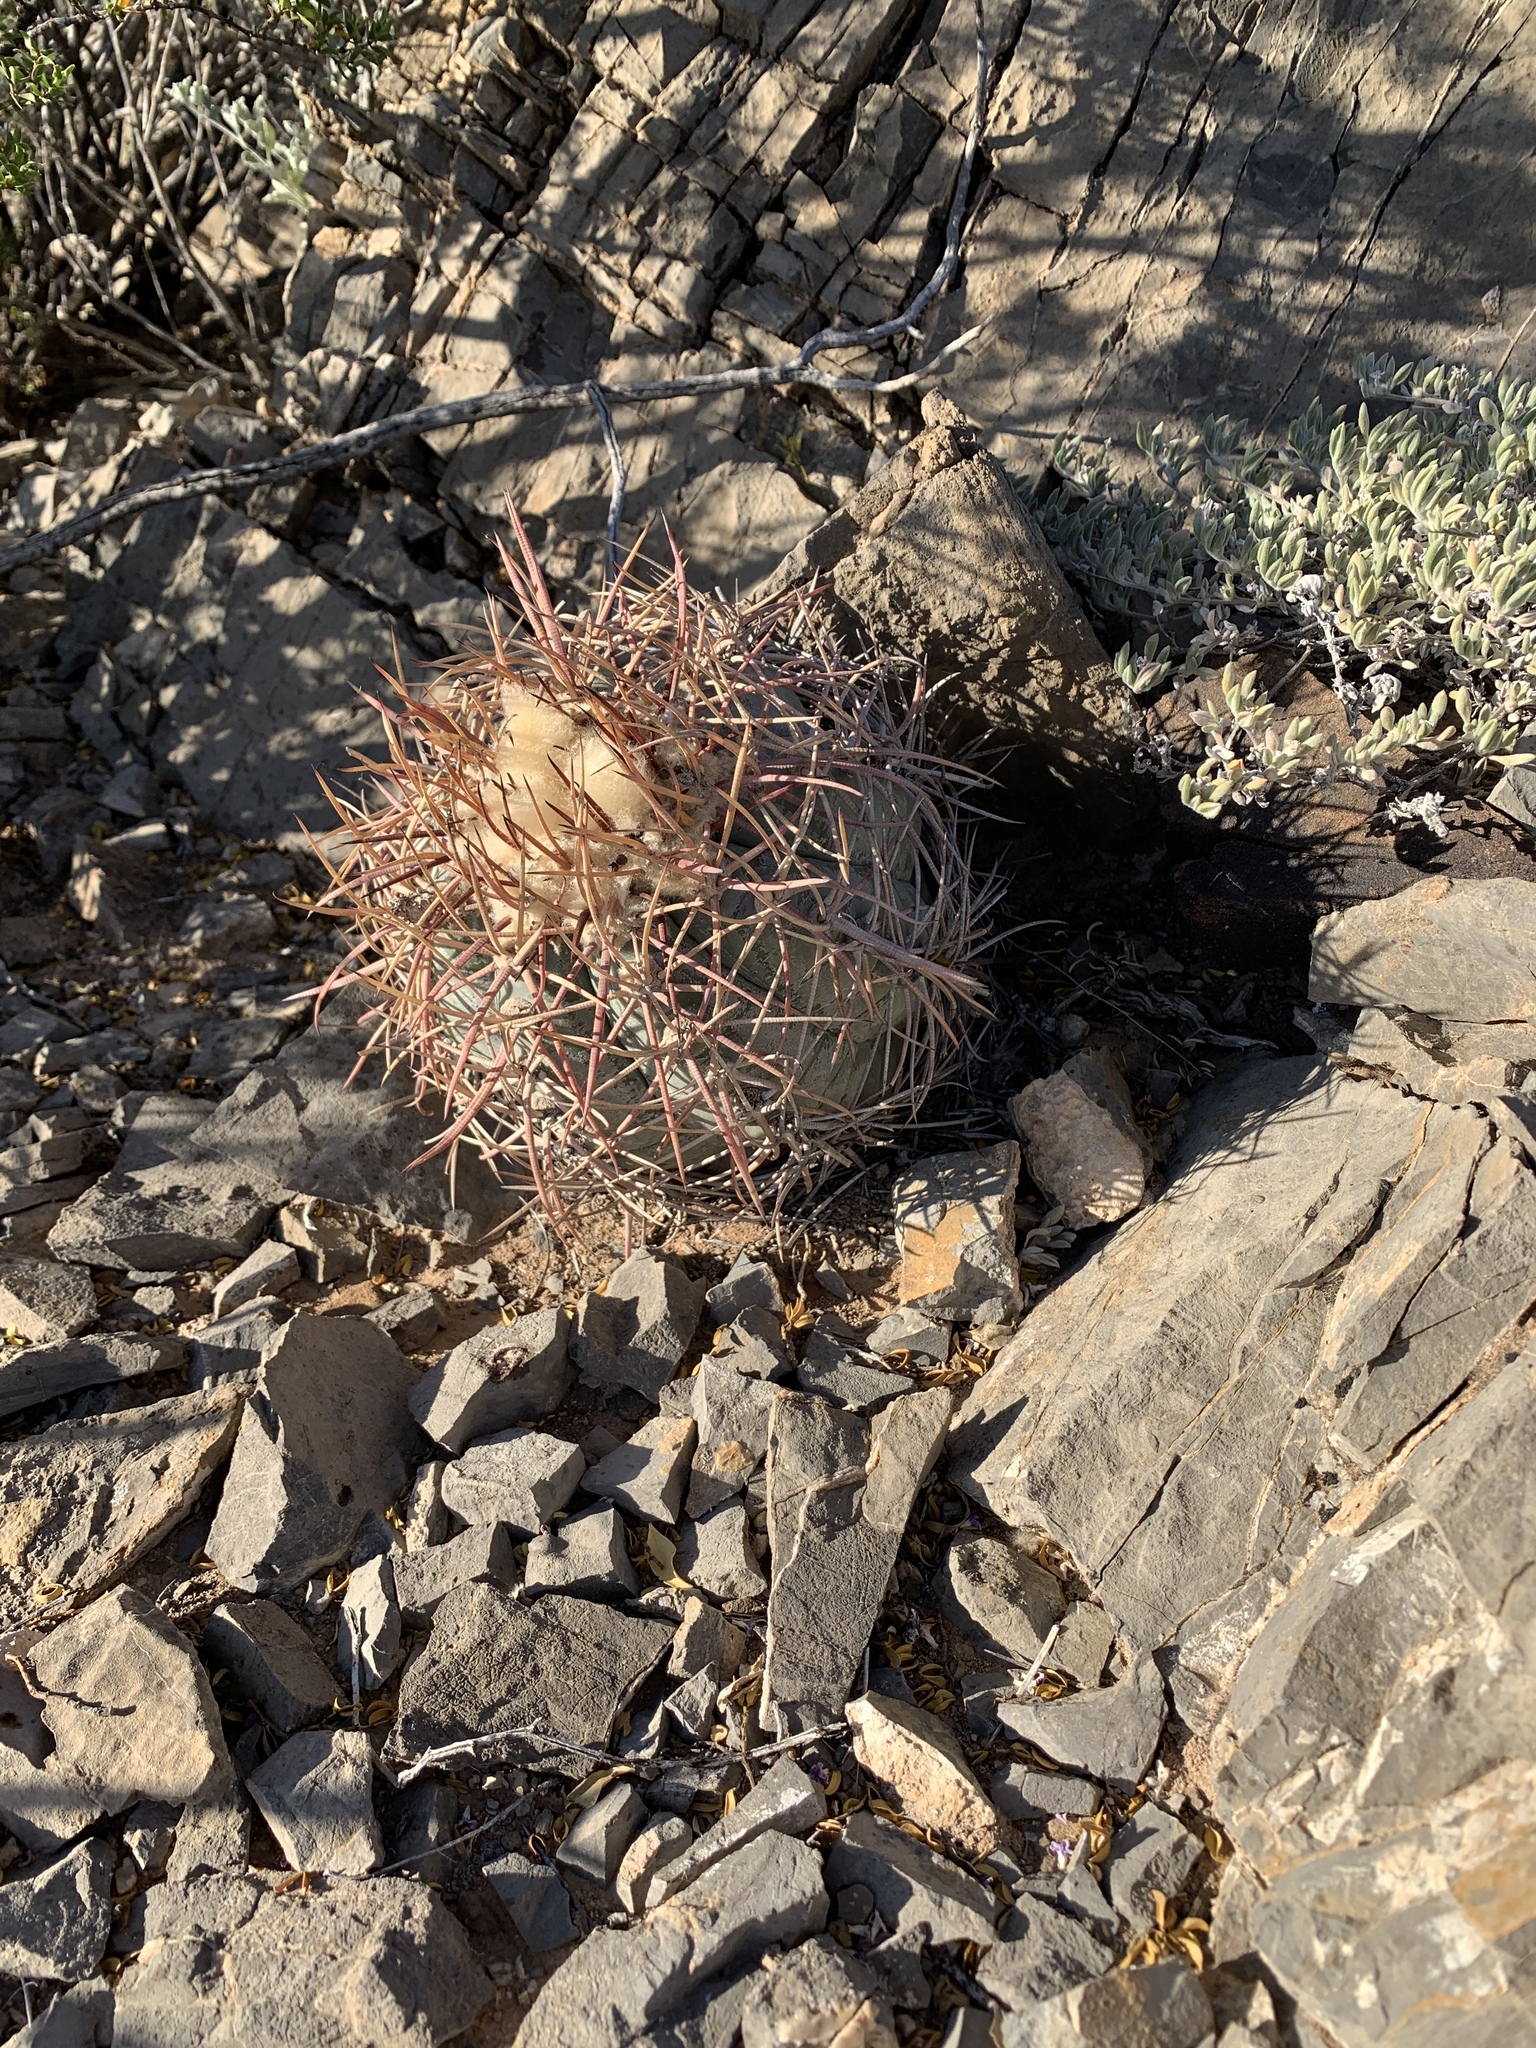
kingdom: Plantae
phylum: Tracheophyta
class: Magnoliopsida
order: Caryophyllales
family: Cactaceae
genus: Echinocactus
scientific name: Echinocactus horizonthalonius
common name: Devilshead
